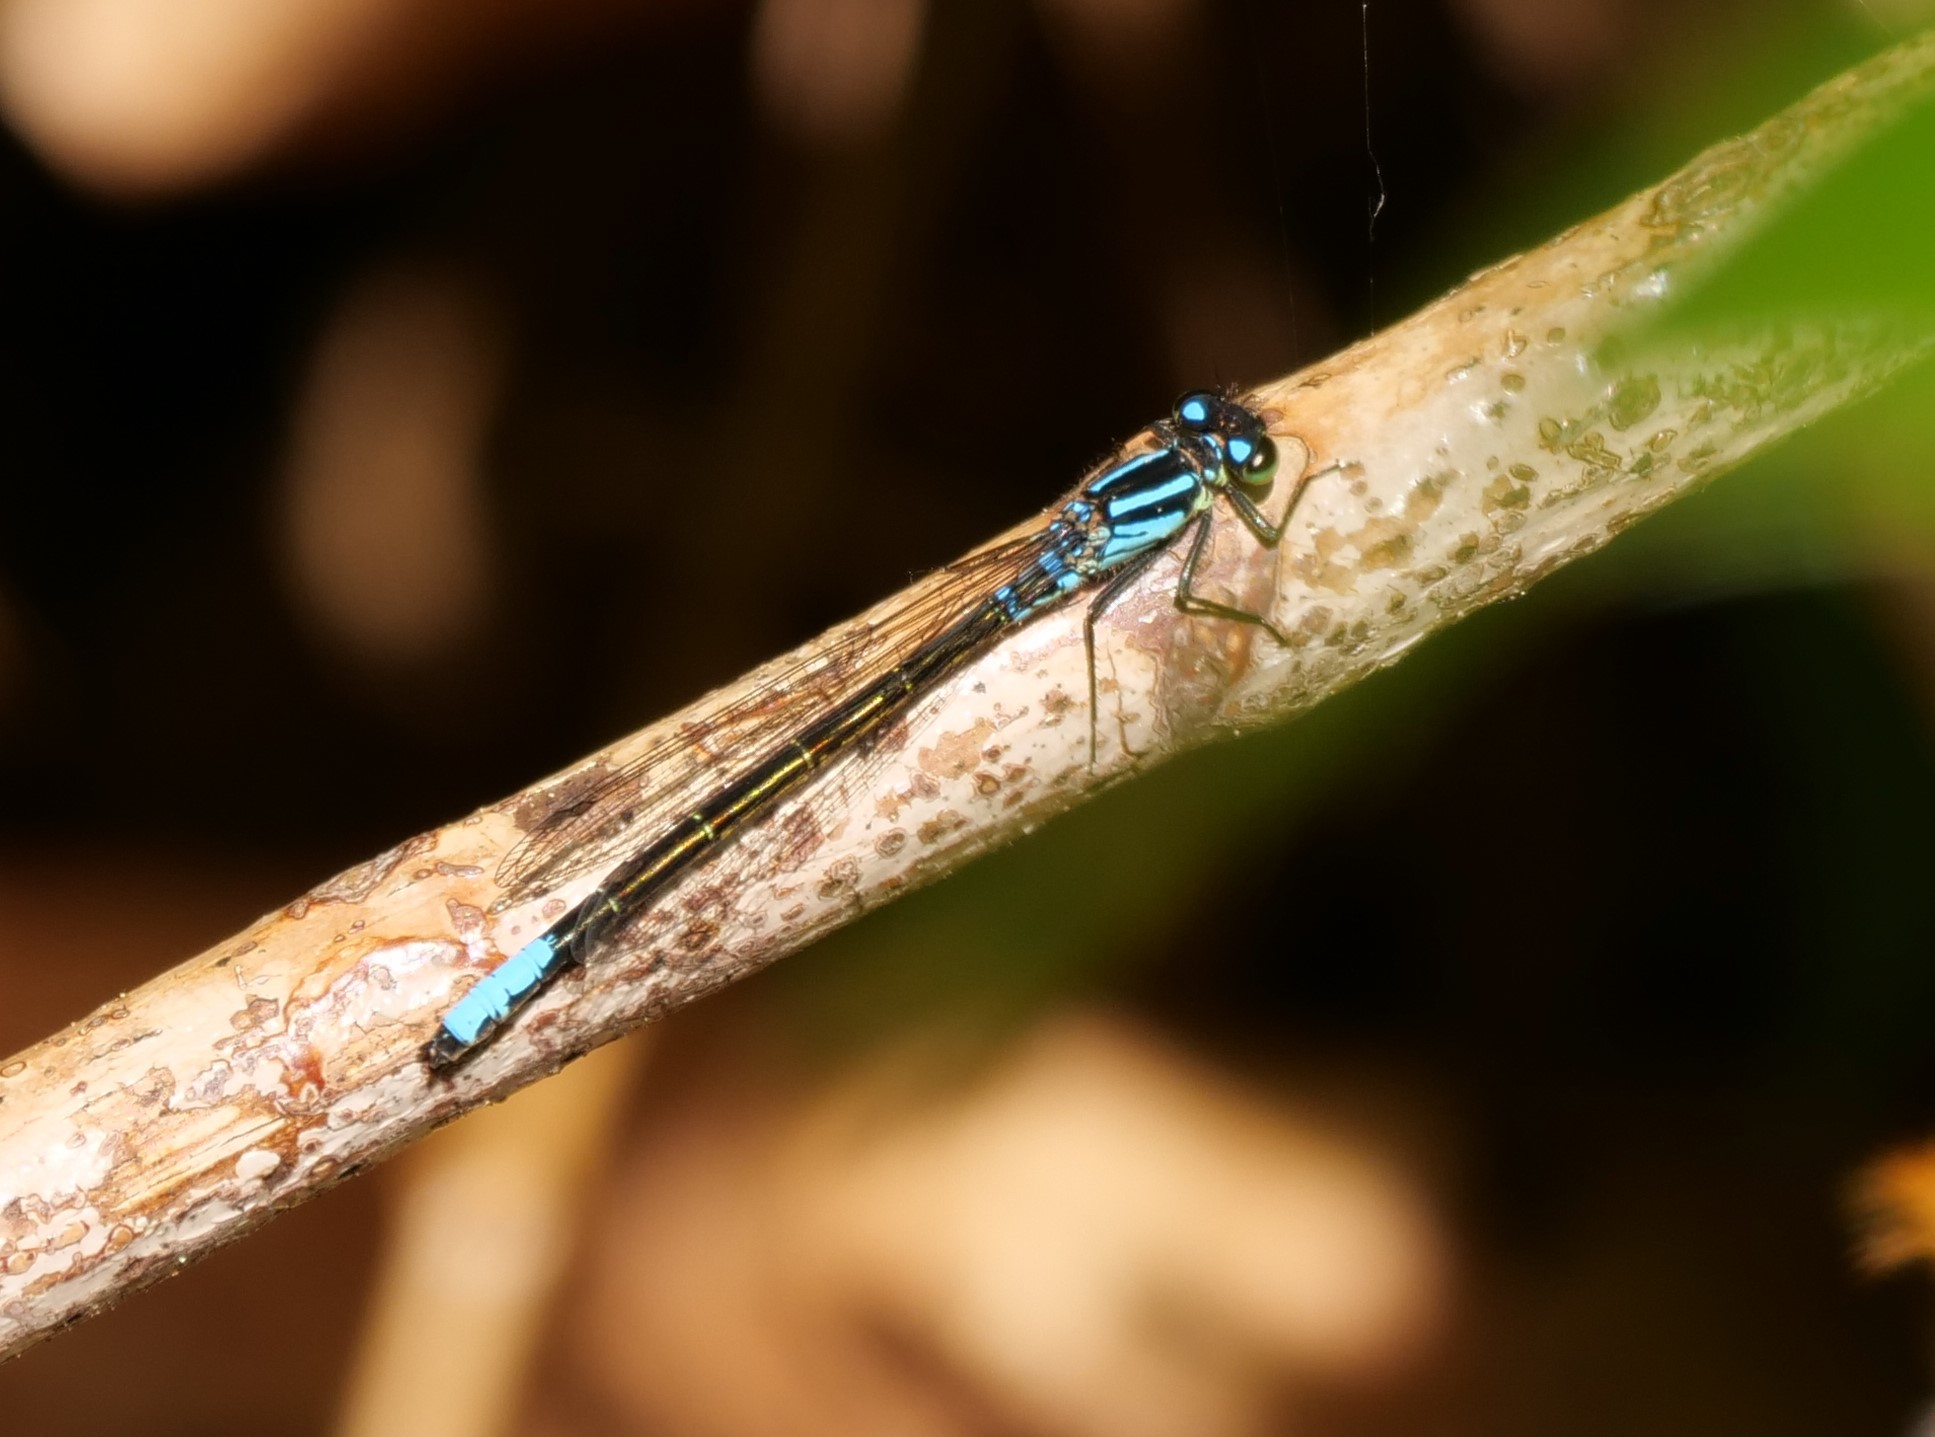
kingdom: Animalia
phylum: Arthropoda
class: Insecta
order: Odonata
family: Coenagrionidae
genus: Ischnura
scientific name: Ischnura erratica
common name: Swift forktail
